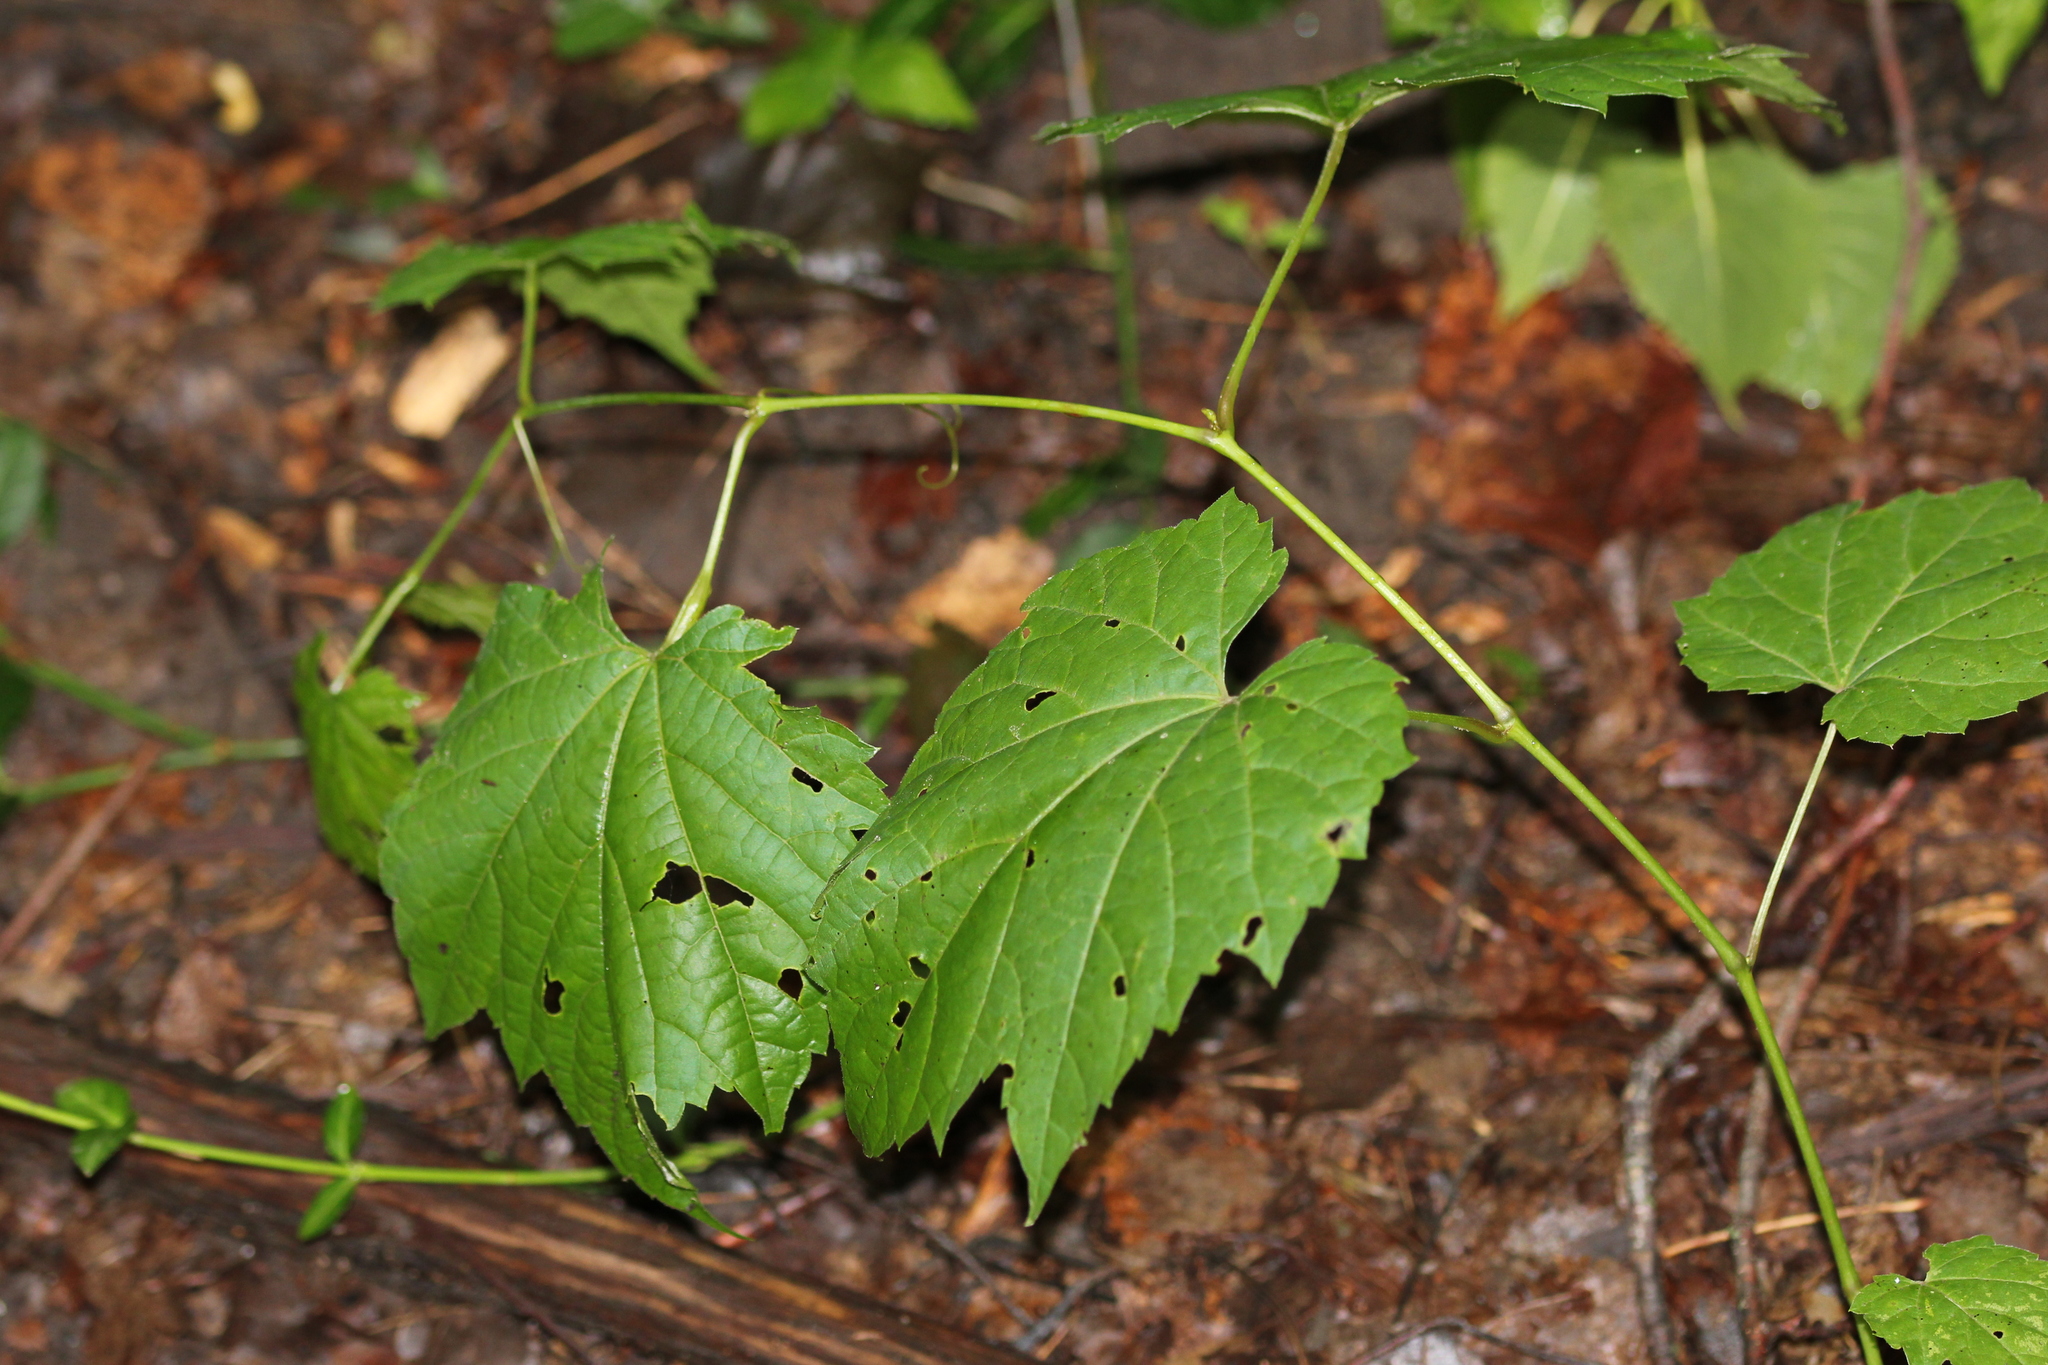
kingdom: Plantae
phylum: Tracheophyta
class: Magnoliopsida
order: Vitales
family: Vitaceae
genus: Vitis
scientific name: Vitis riparia
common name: Frost grape
